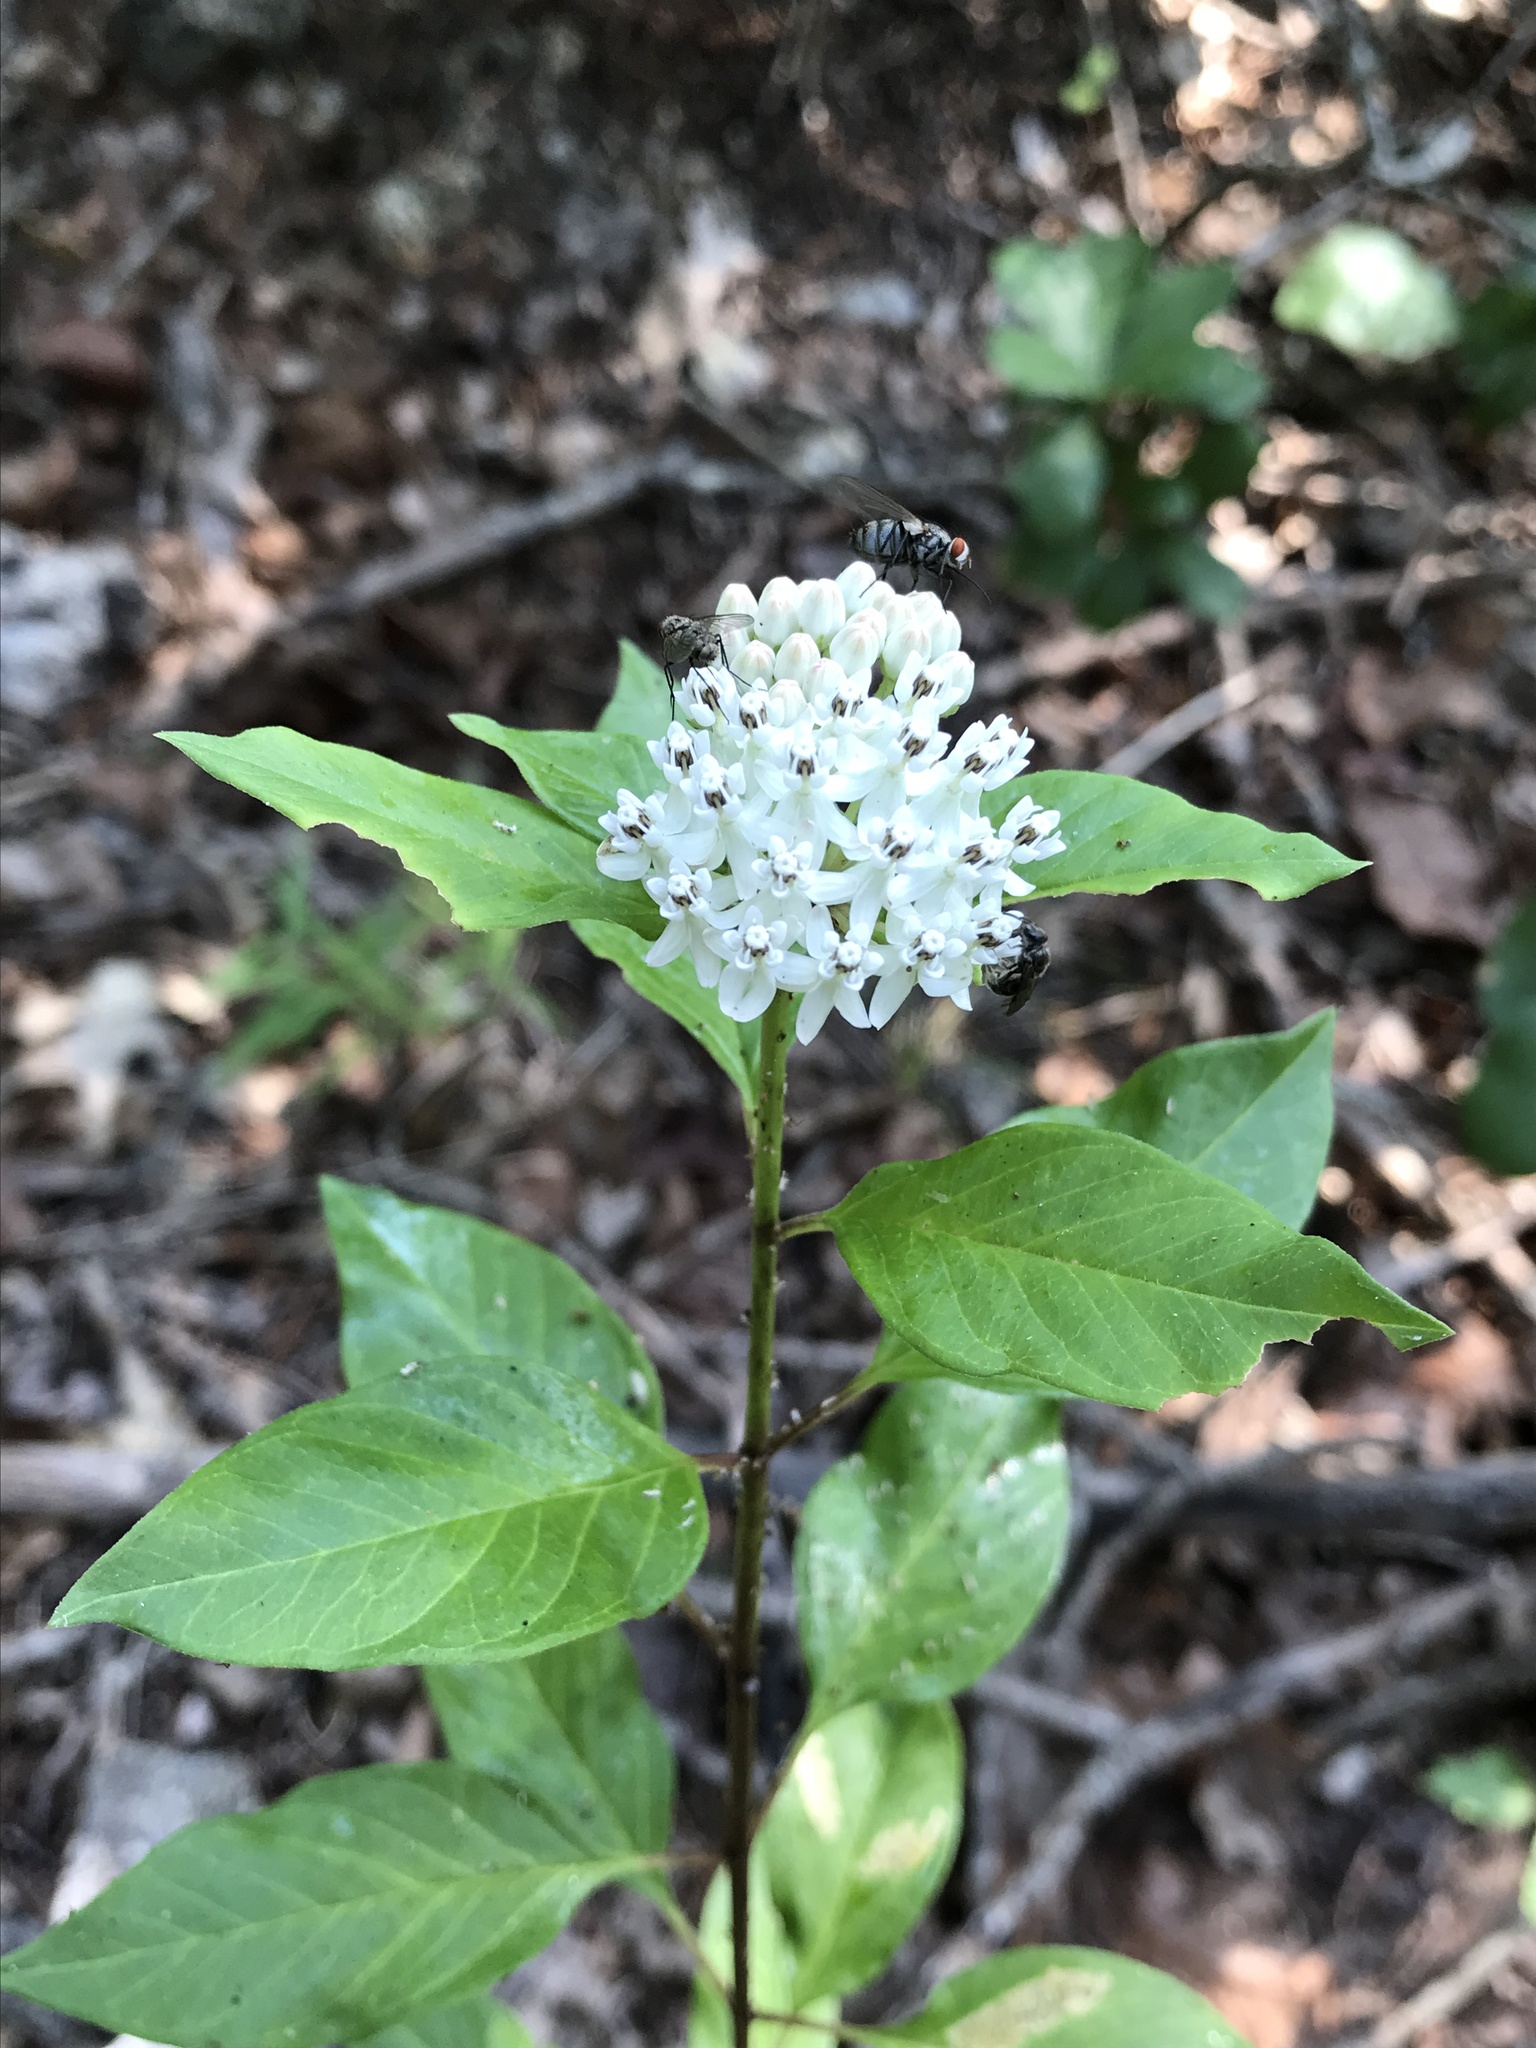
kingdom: Plantae
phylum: Tracheophyta
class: Magnoliopsida
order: Gentianales
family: Apocynaceae
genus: Asclepias
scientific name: Asclepias texana
